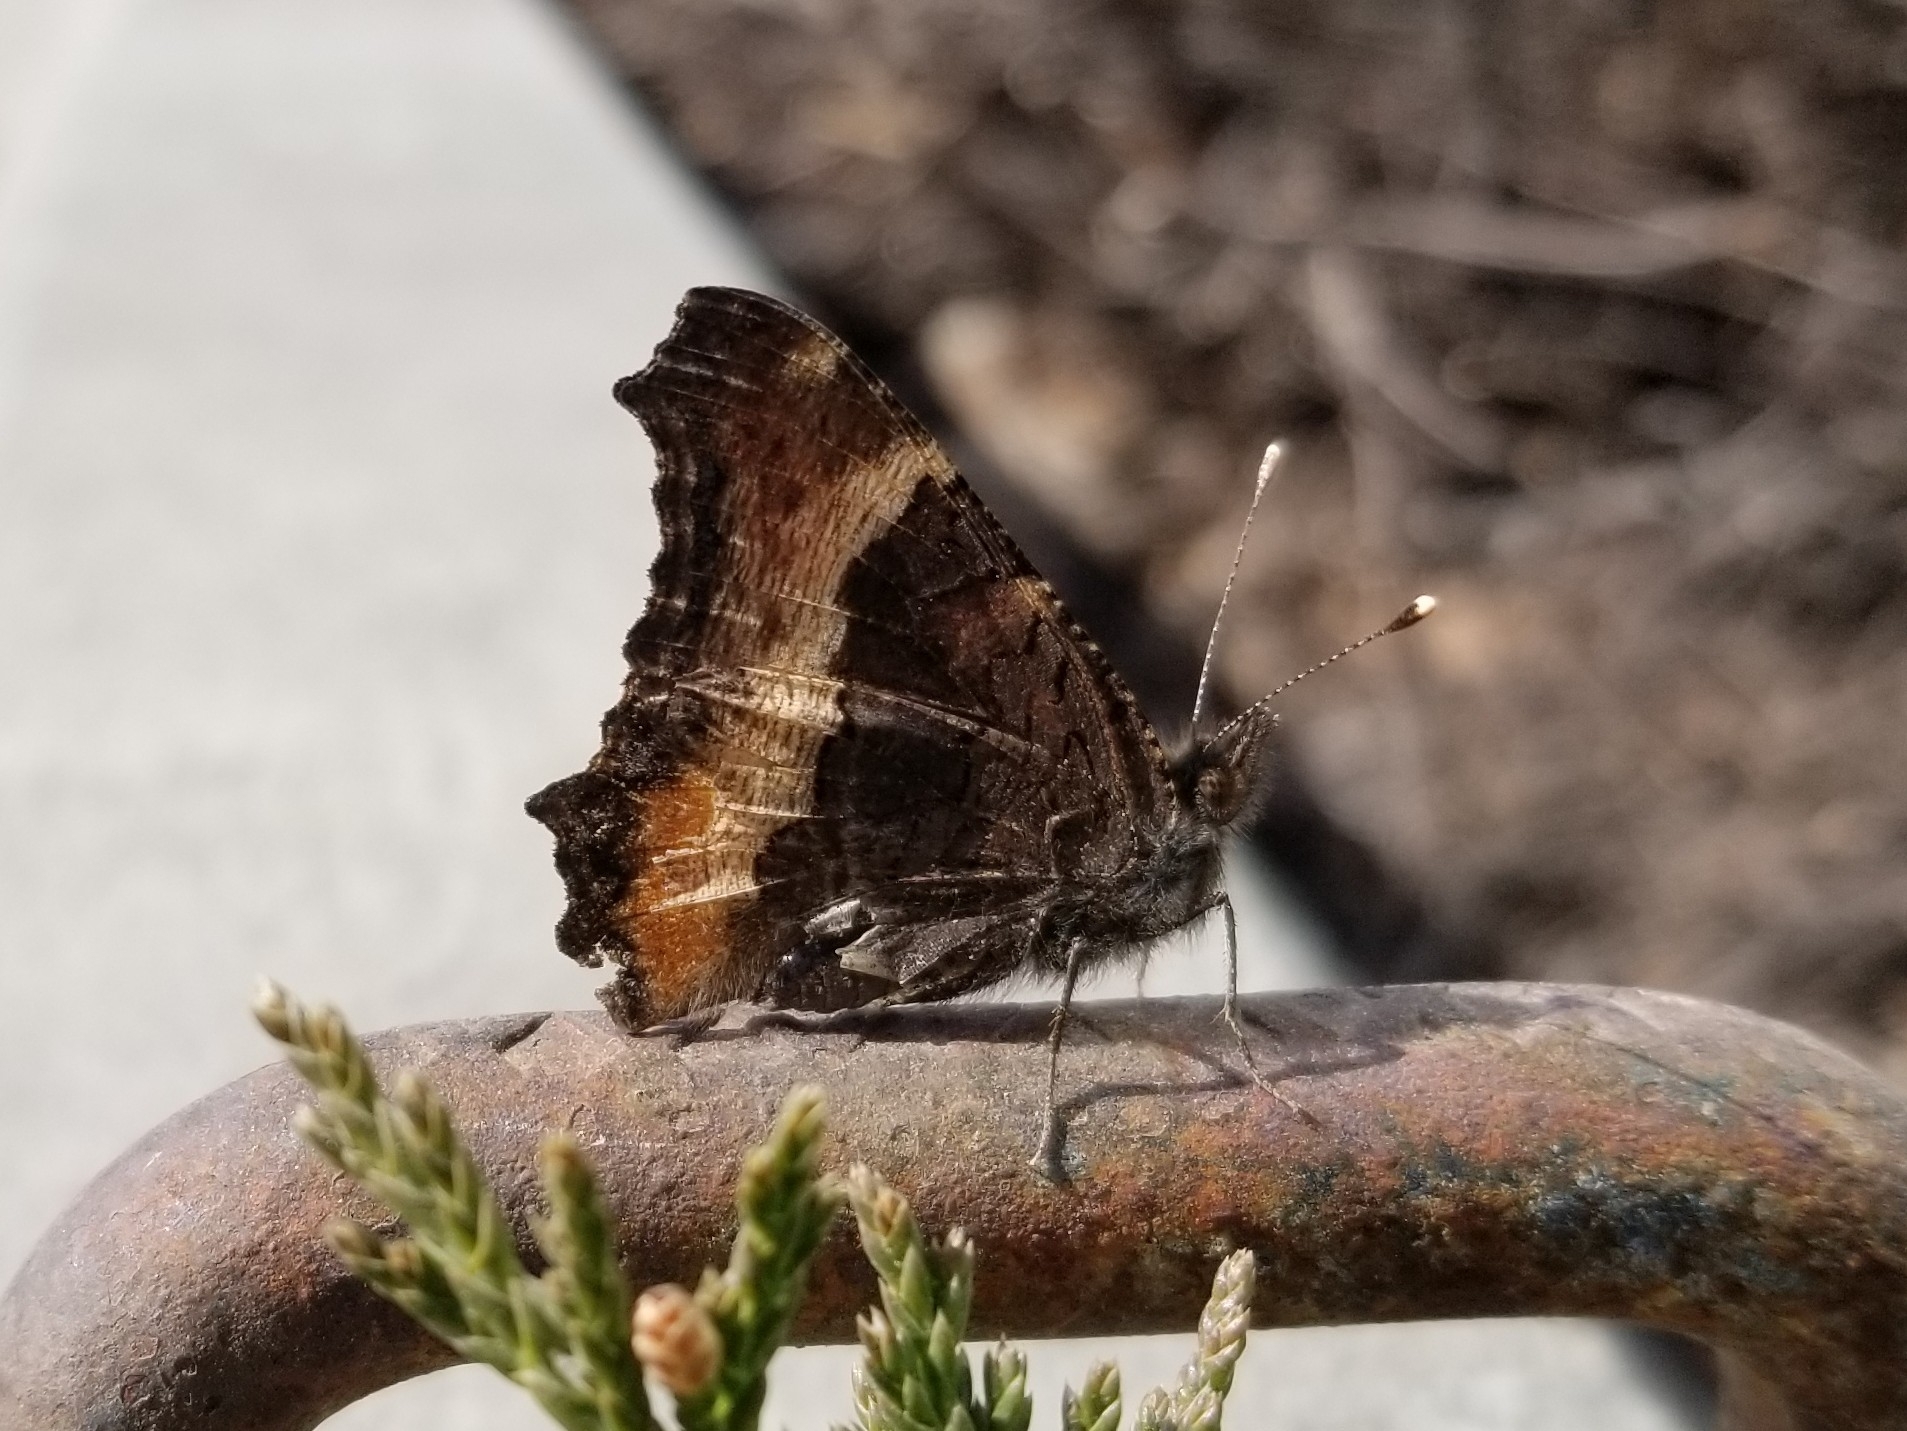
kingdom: Animalia
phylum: Arthropoda
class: Insecta
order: Lepidoptera
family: Nymphalidae
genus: Aglais
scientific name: Aglais milberti
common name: Milbert's tortoiseshell
